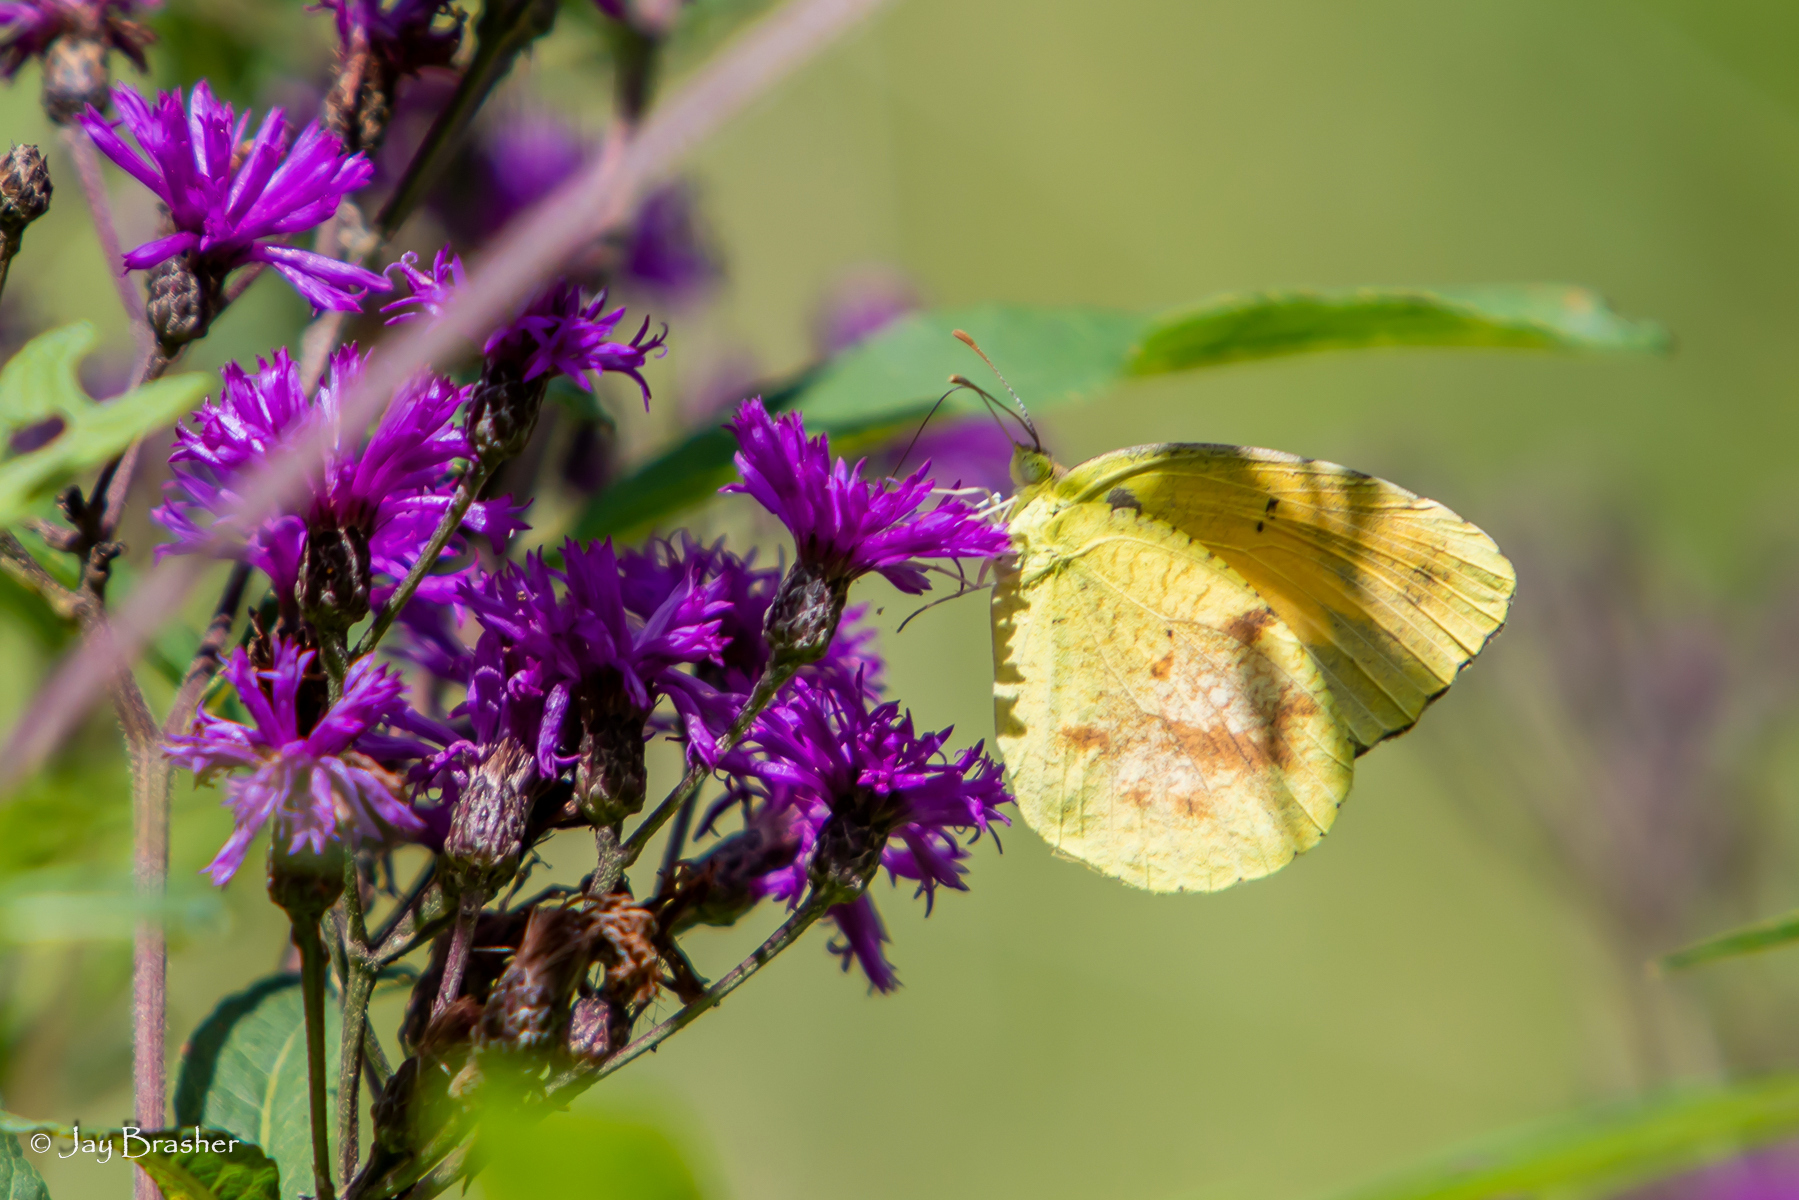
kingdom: Animalia
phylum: Arthropoda
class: Insecta
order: Lepidoptera
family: Pieridae
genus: Abaeis
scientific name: Abaeis nicippe
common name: Sleepy orange
